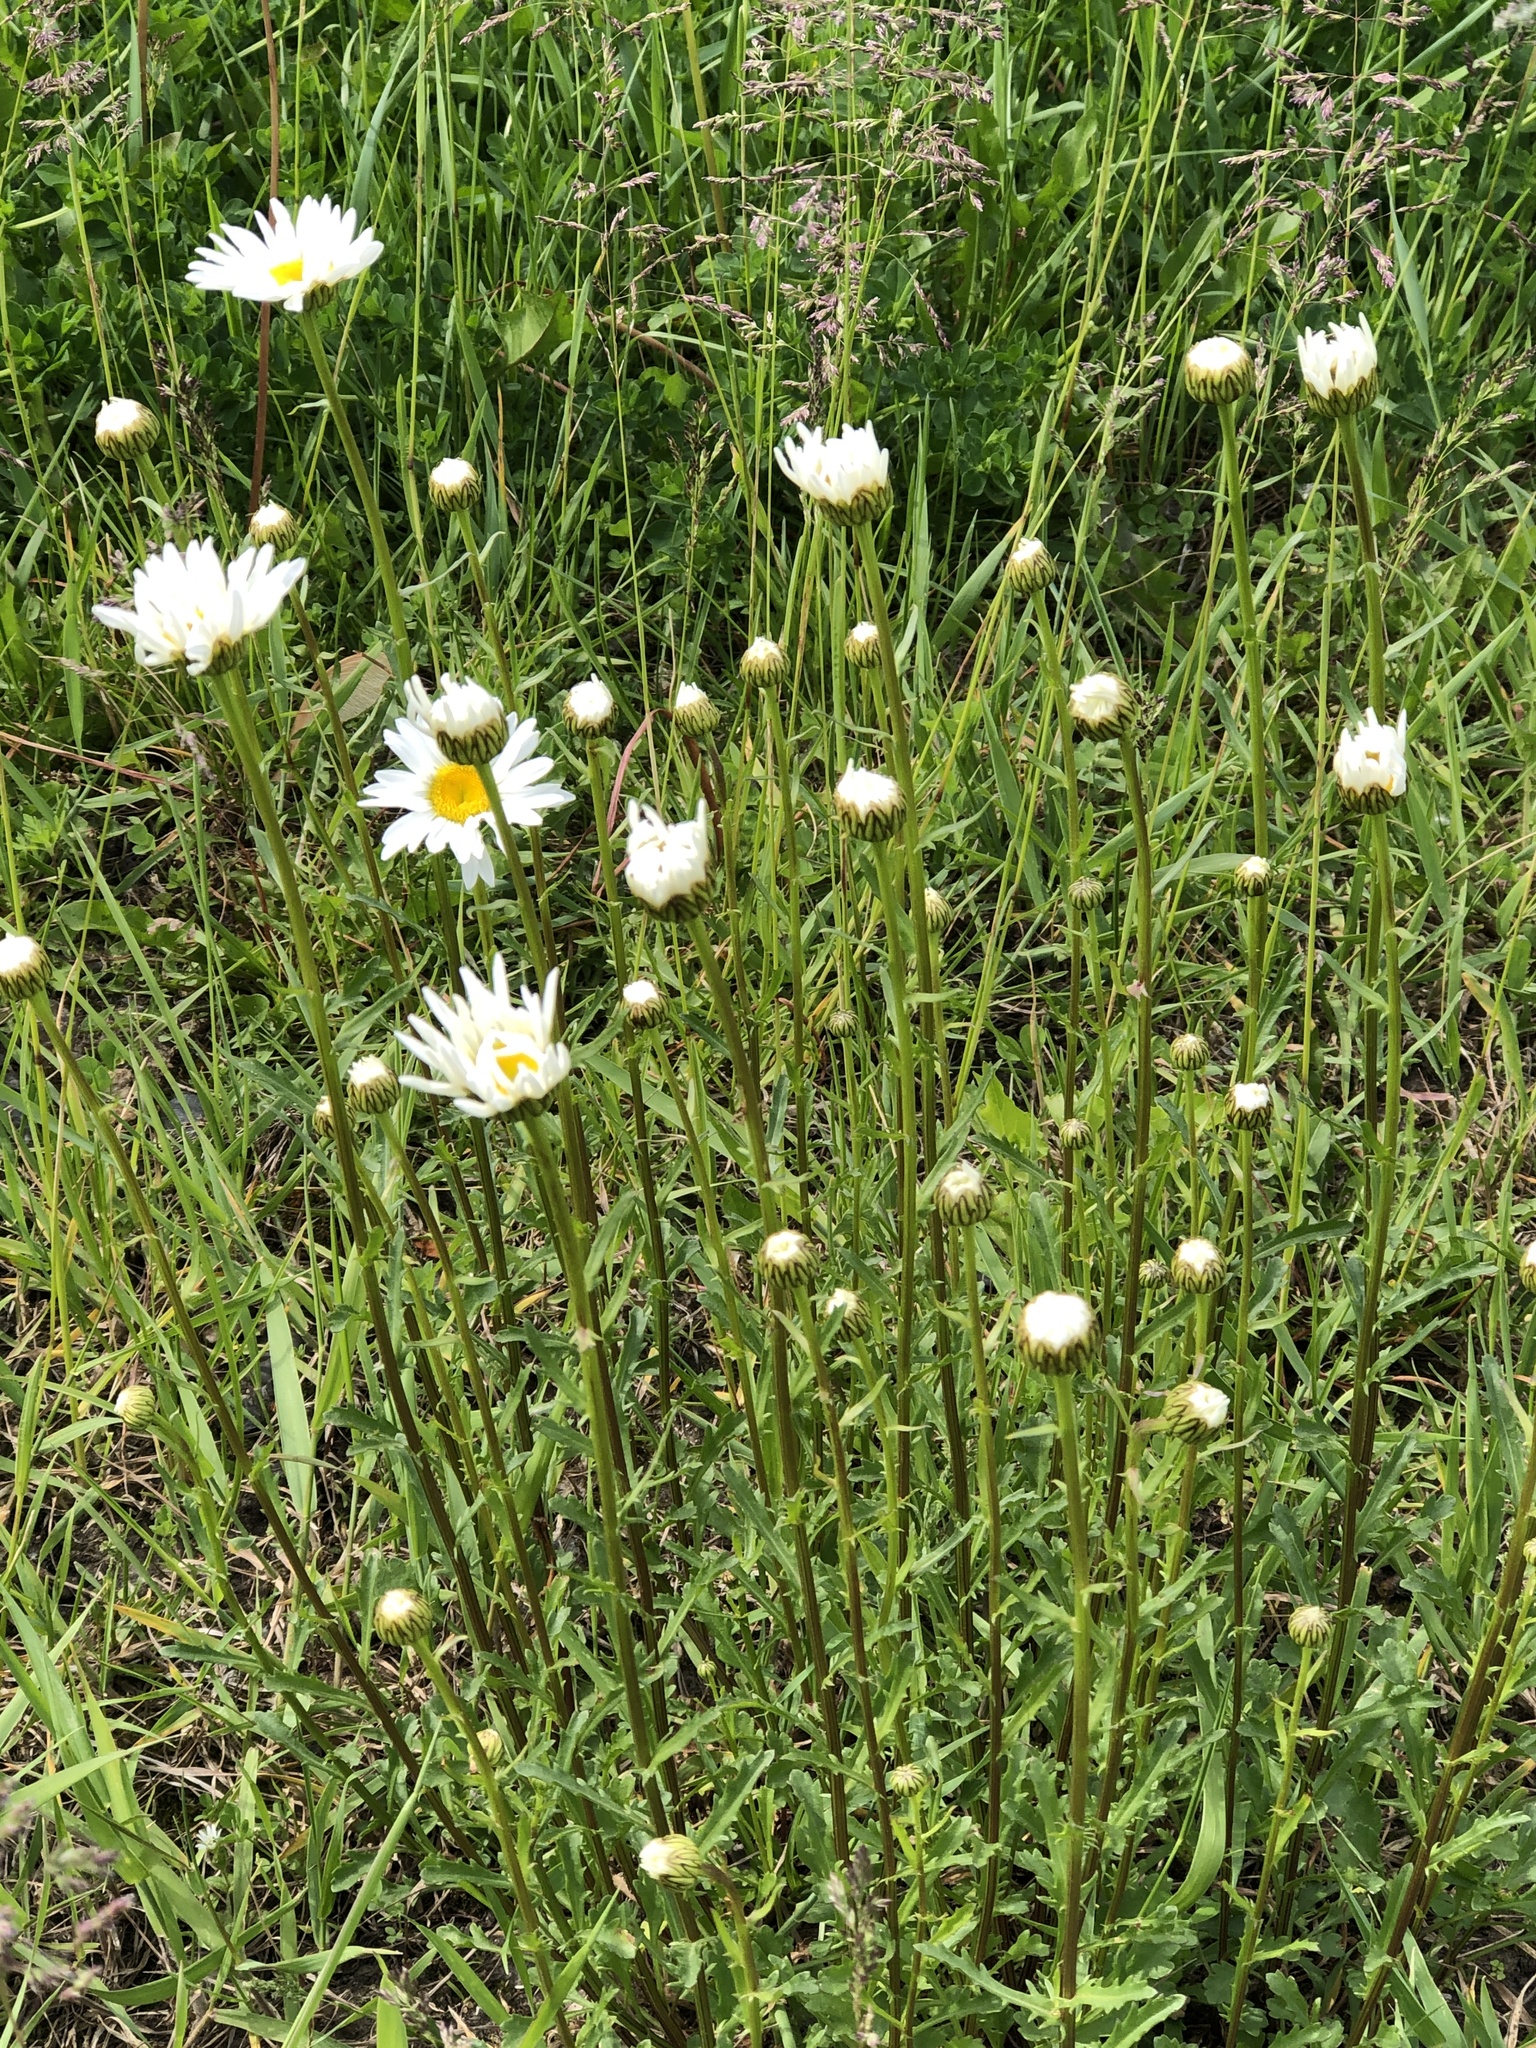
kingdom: Plantae
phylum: Tracheophyta
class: Magnoliopsida
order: Asterales
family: Asteraceae
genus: Leucanthemum
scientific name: Leucanthemum vulgare
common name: Oxeye daisy
